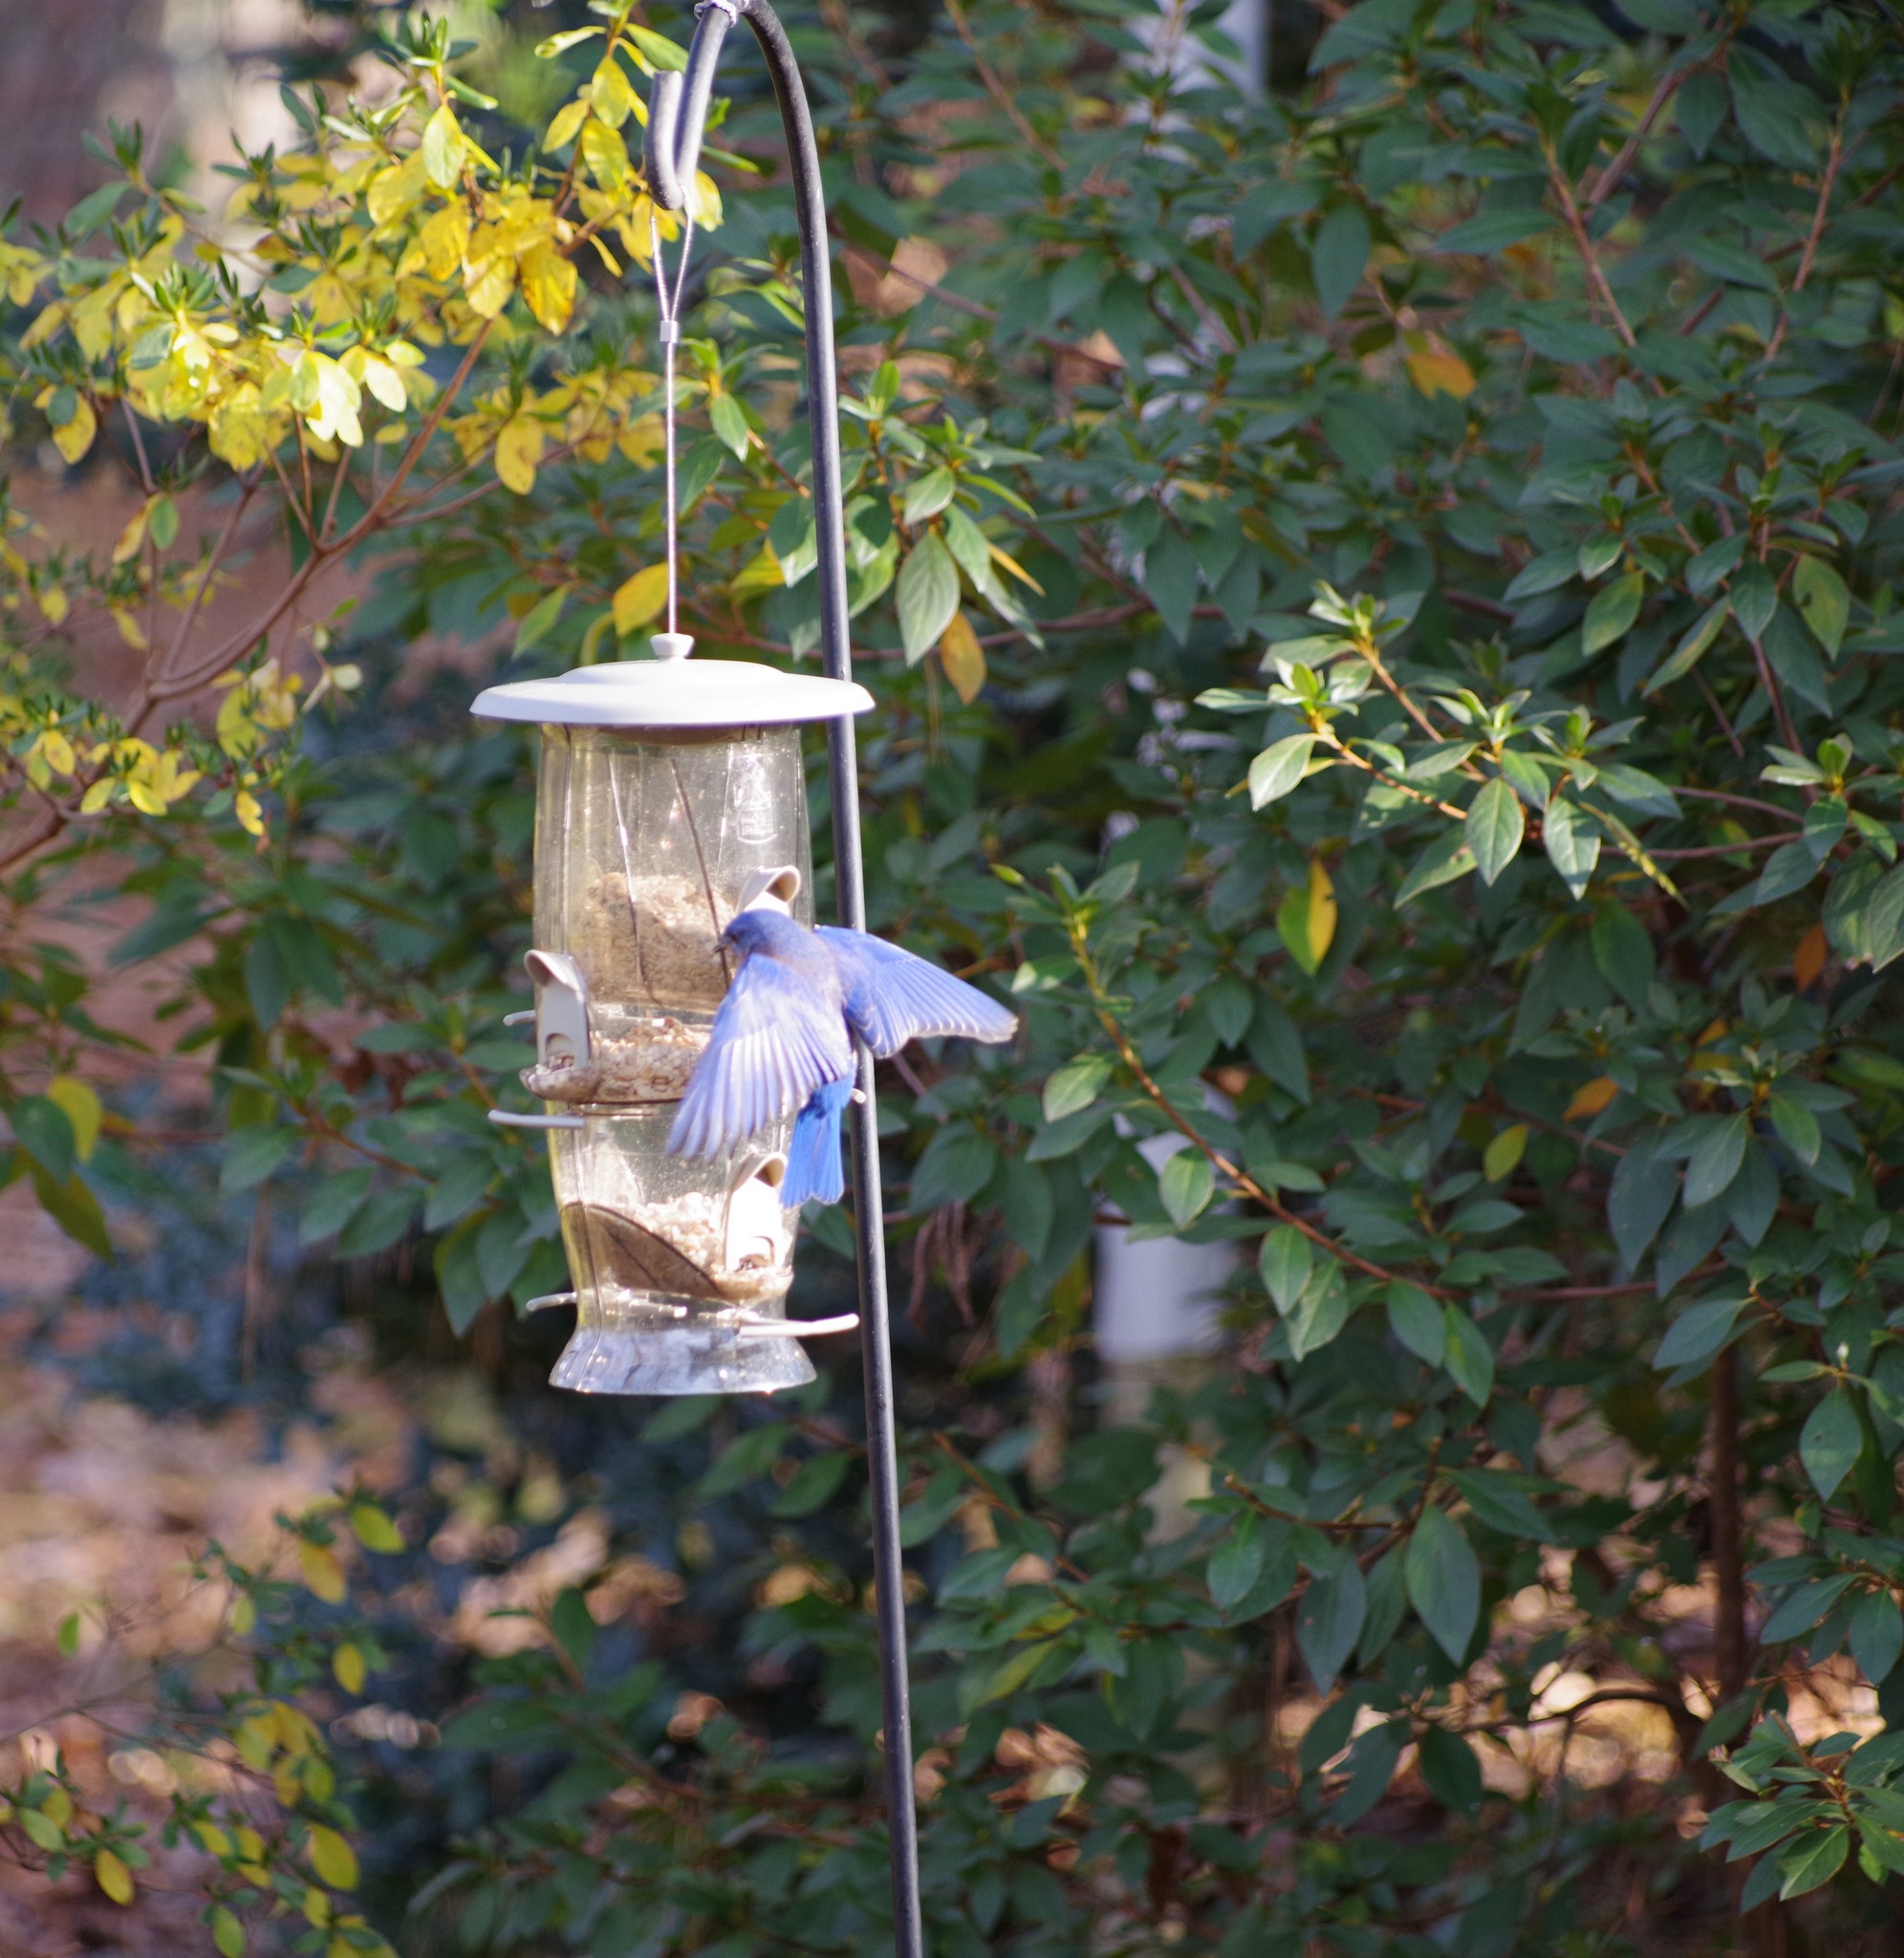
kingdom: Animalia
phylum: Chordata
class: Aves
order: Passeriformes
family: Turdidae
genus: Sialia
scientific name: Sialia sialis
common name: Eastern bluebird
